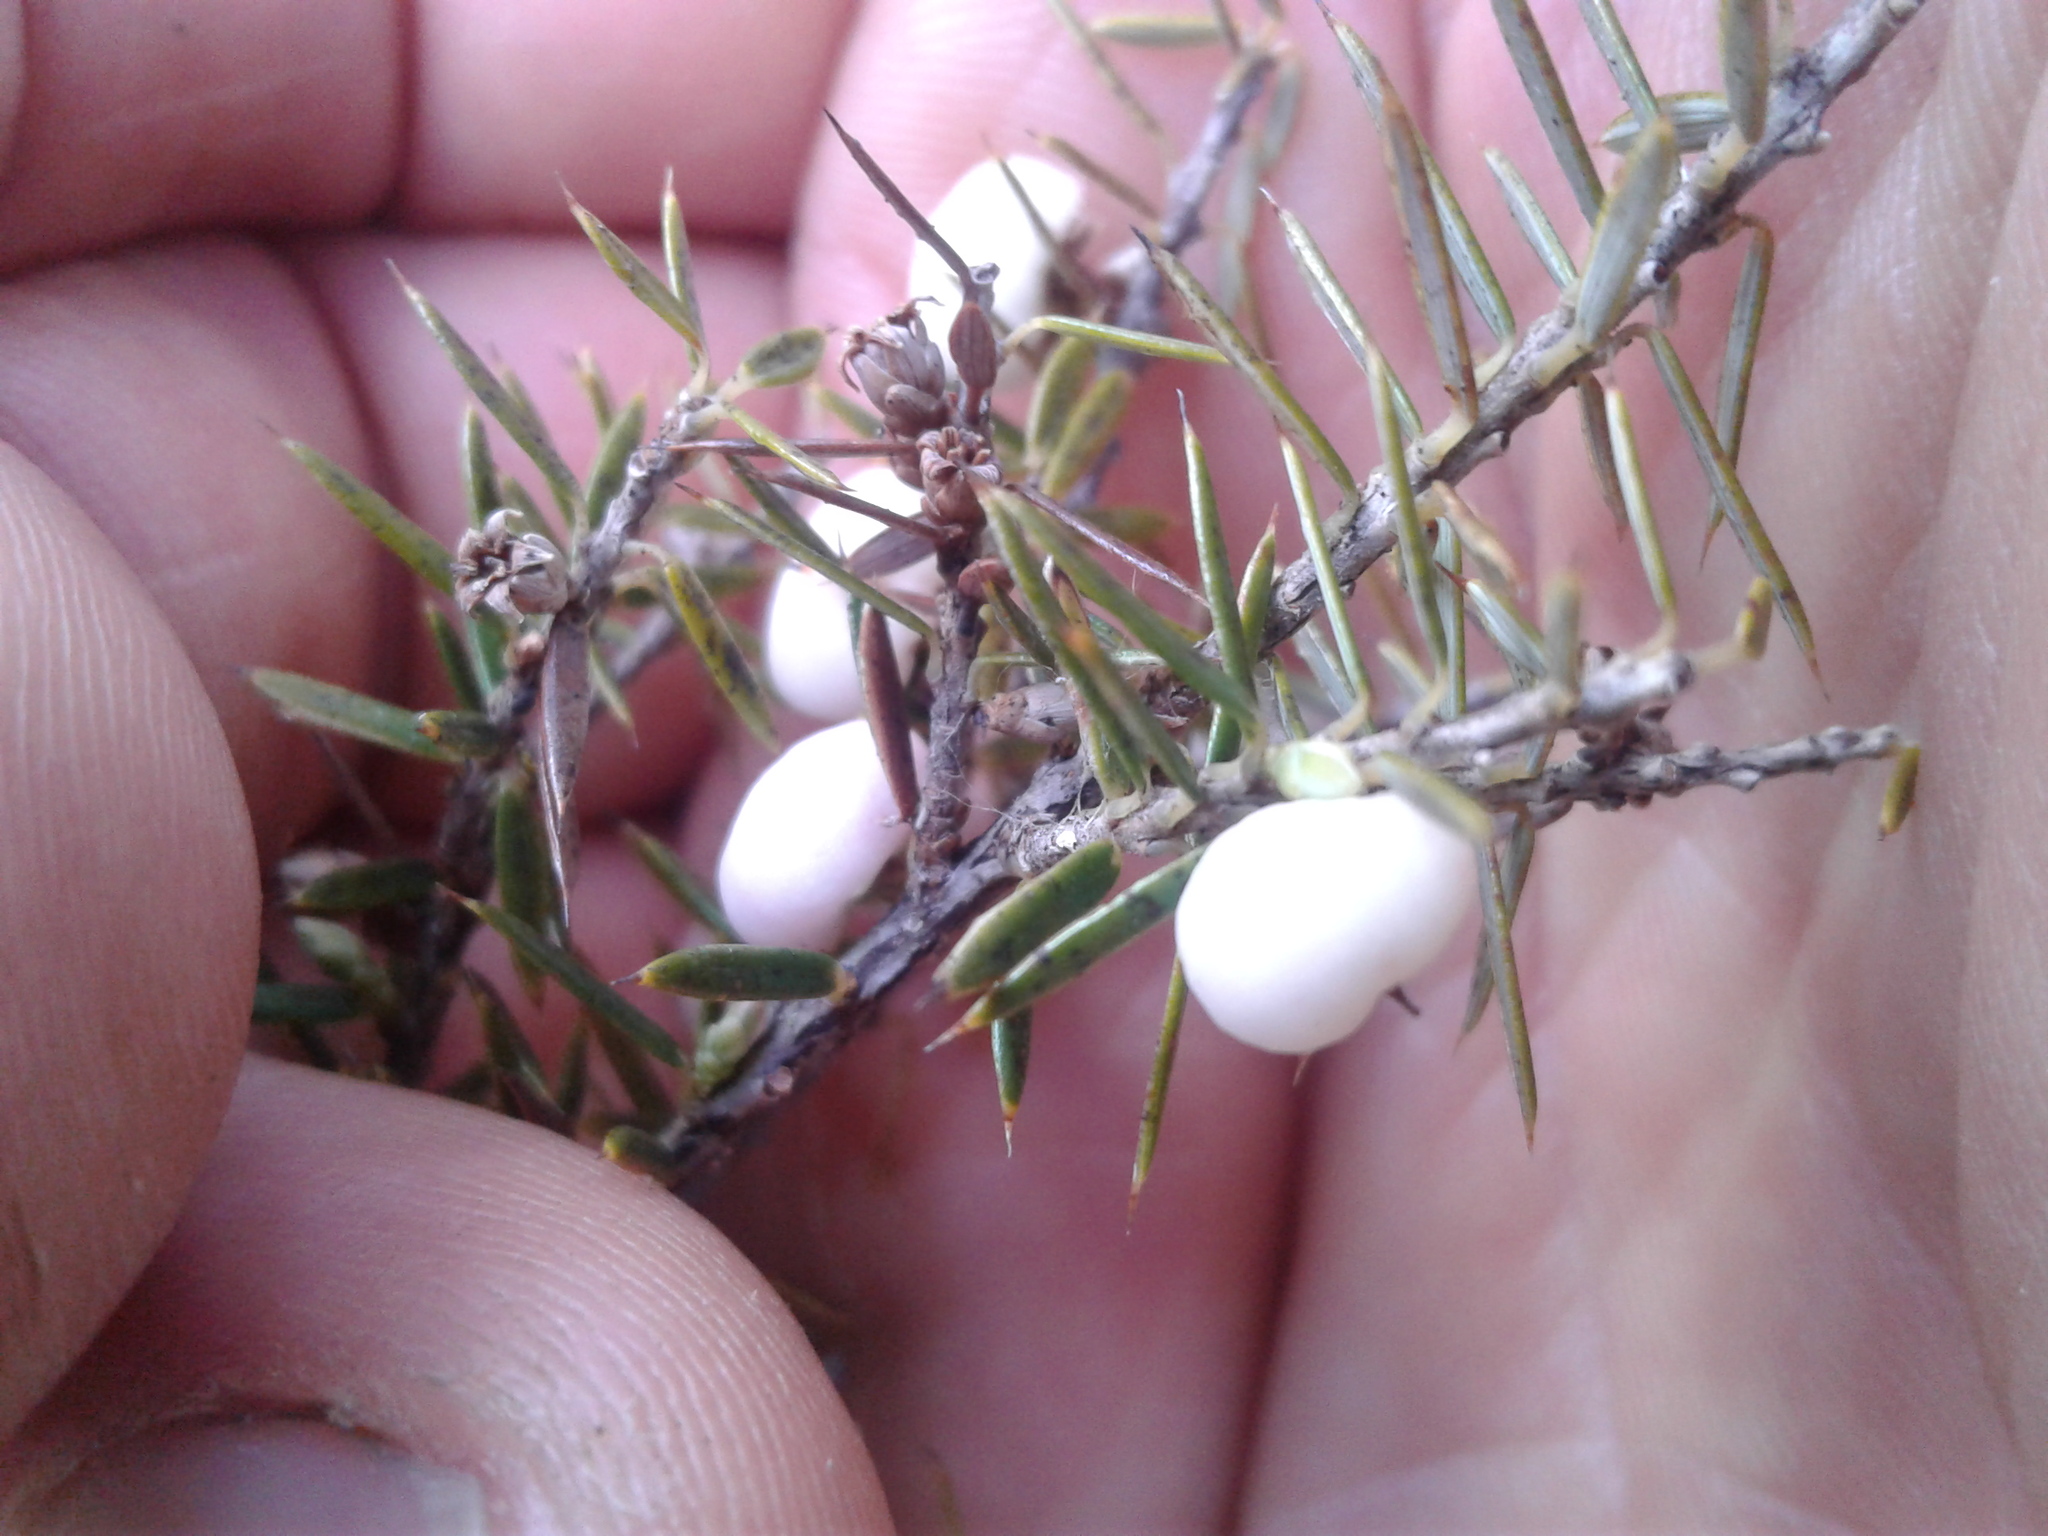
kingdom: Plantae
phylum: Tracheophyta
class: Magnoliopsida
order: Ericales
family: Ericaceae
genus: Leptecophylla
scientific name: Leptecophylla juniperina
